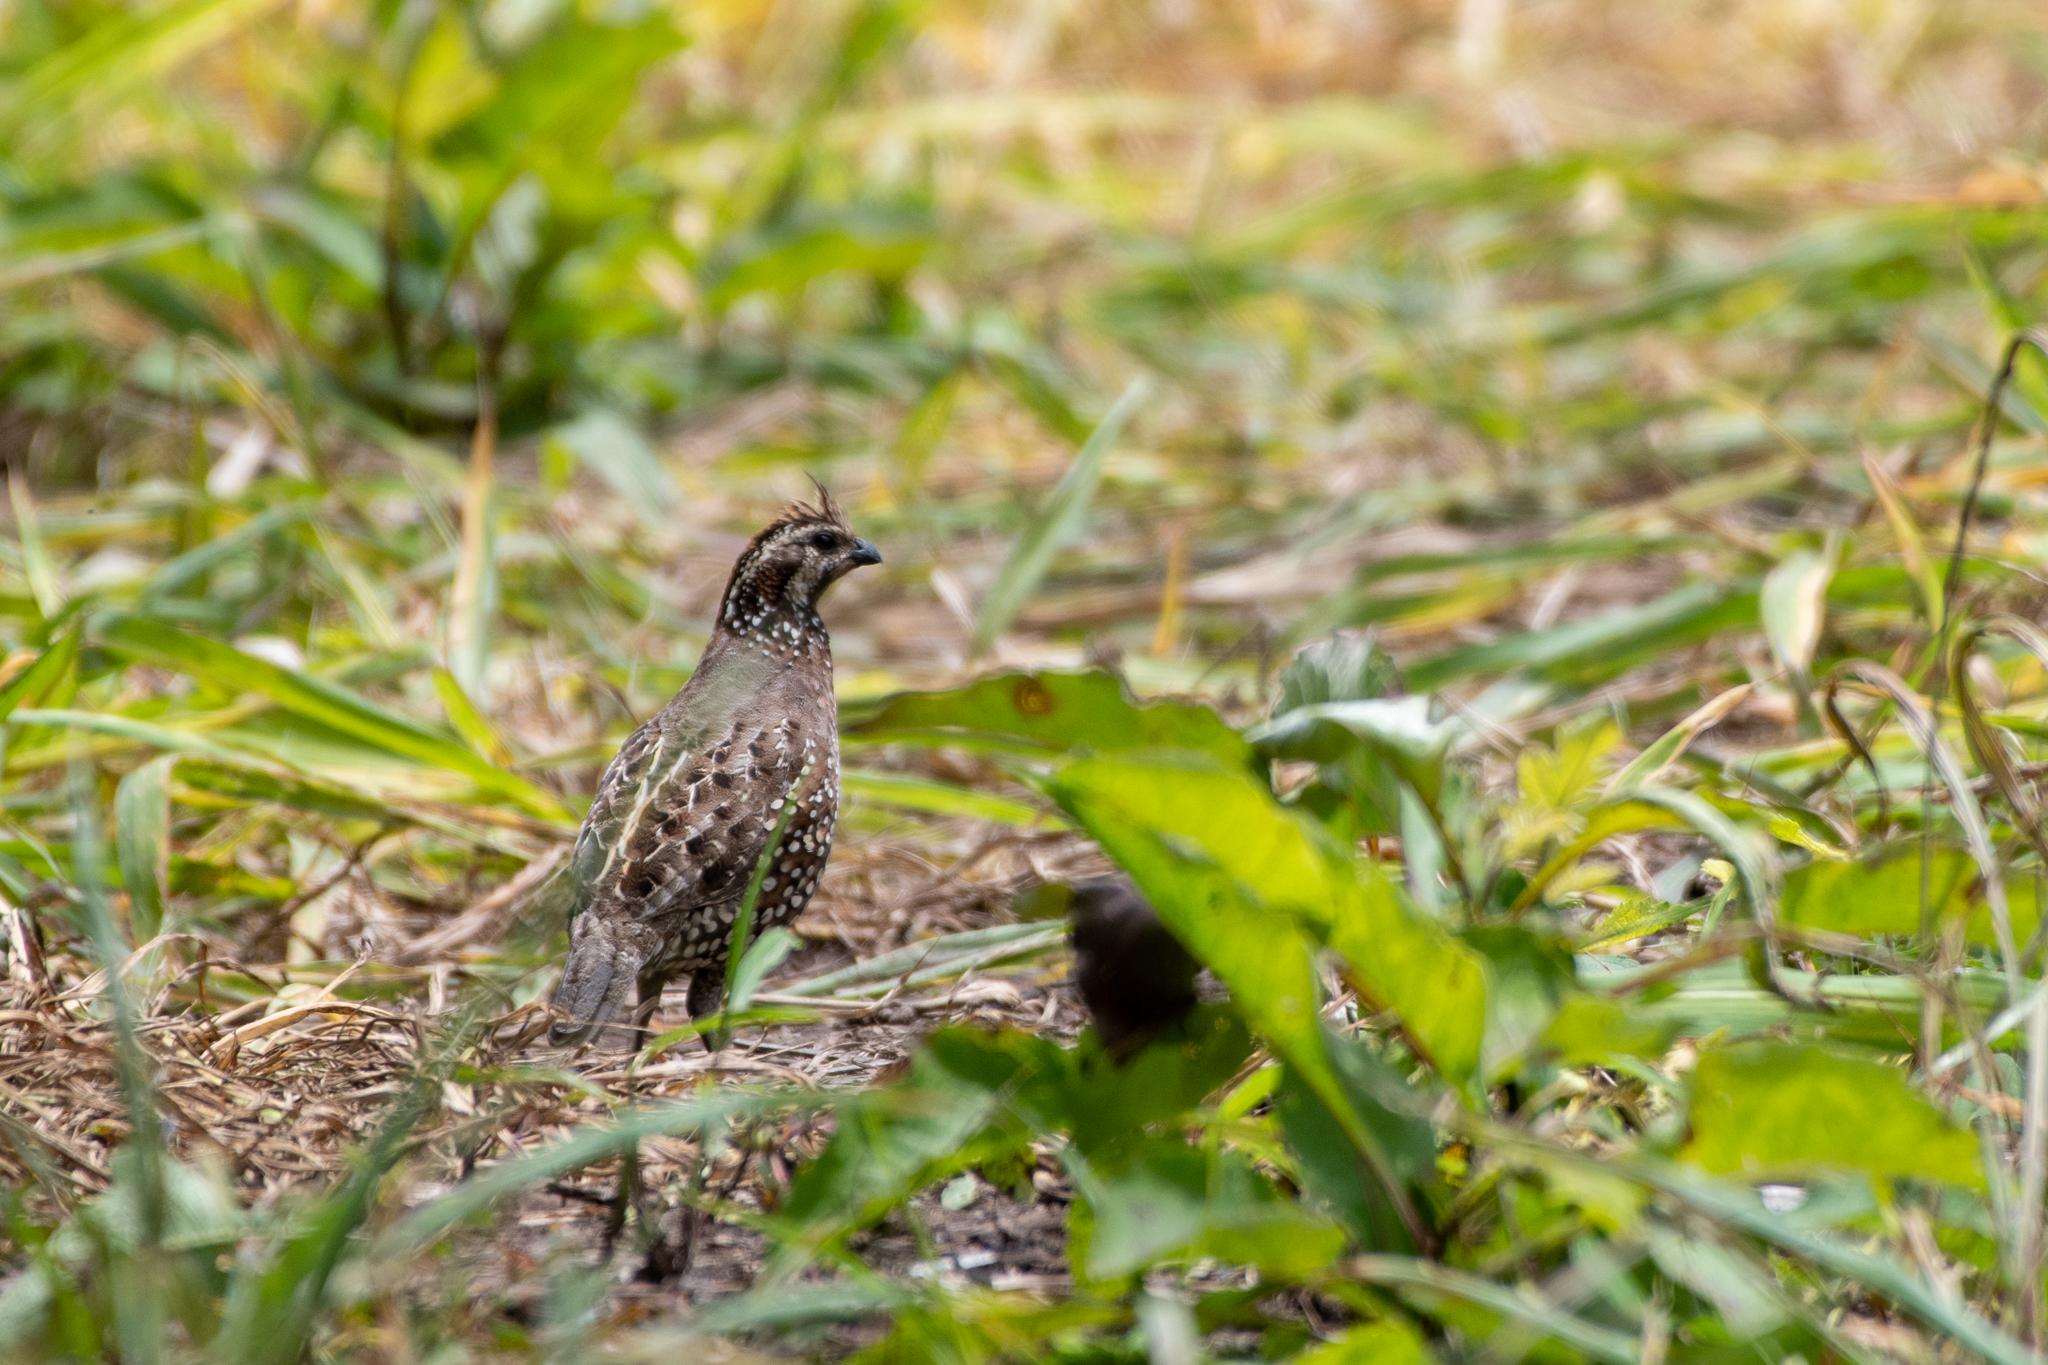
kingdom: Animalia
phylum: Chordata
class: Aves
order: Galliformes
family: Odontophoridae
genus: Colinus
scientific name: Colinus cristatus
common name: Crested bobwhite
